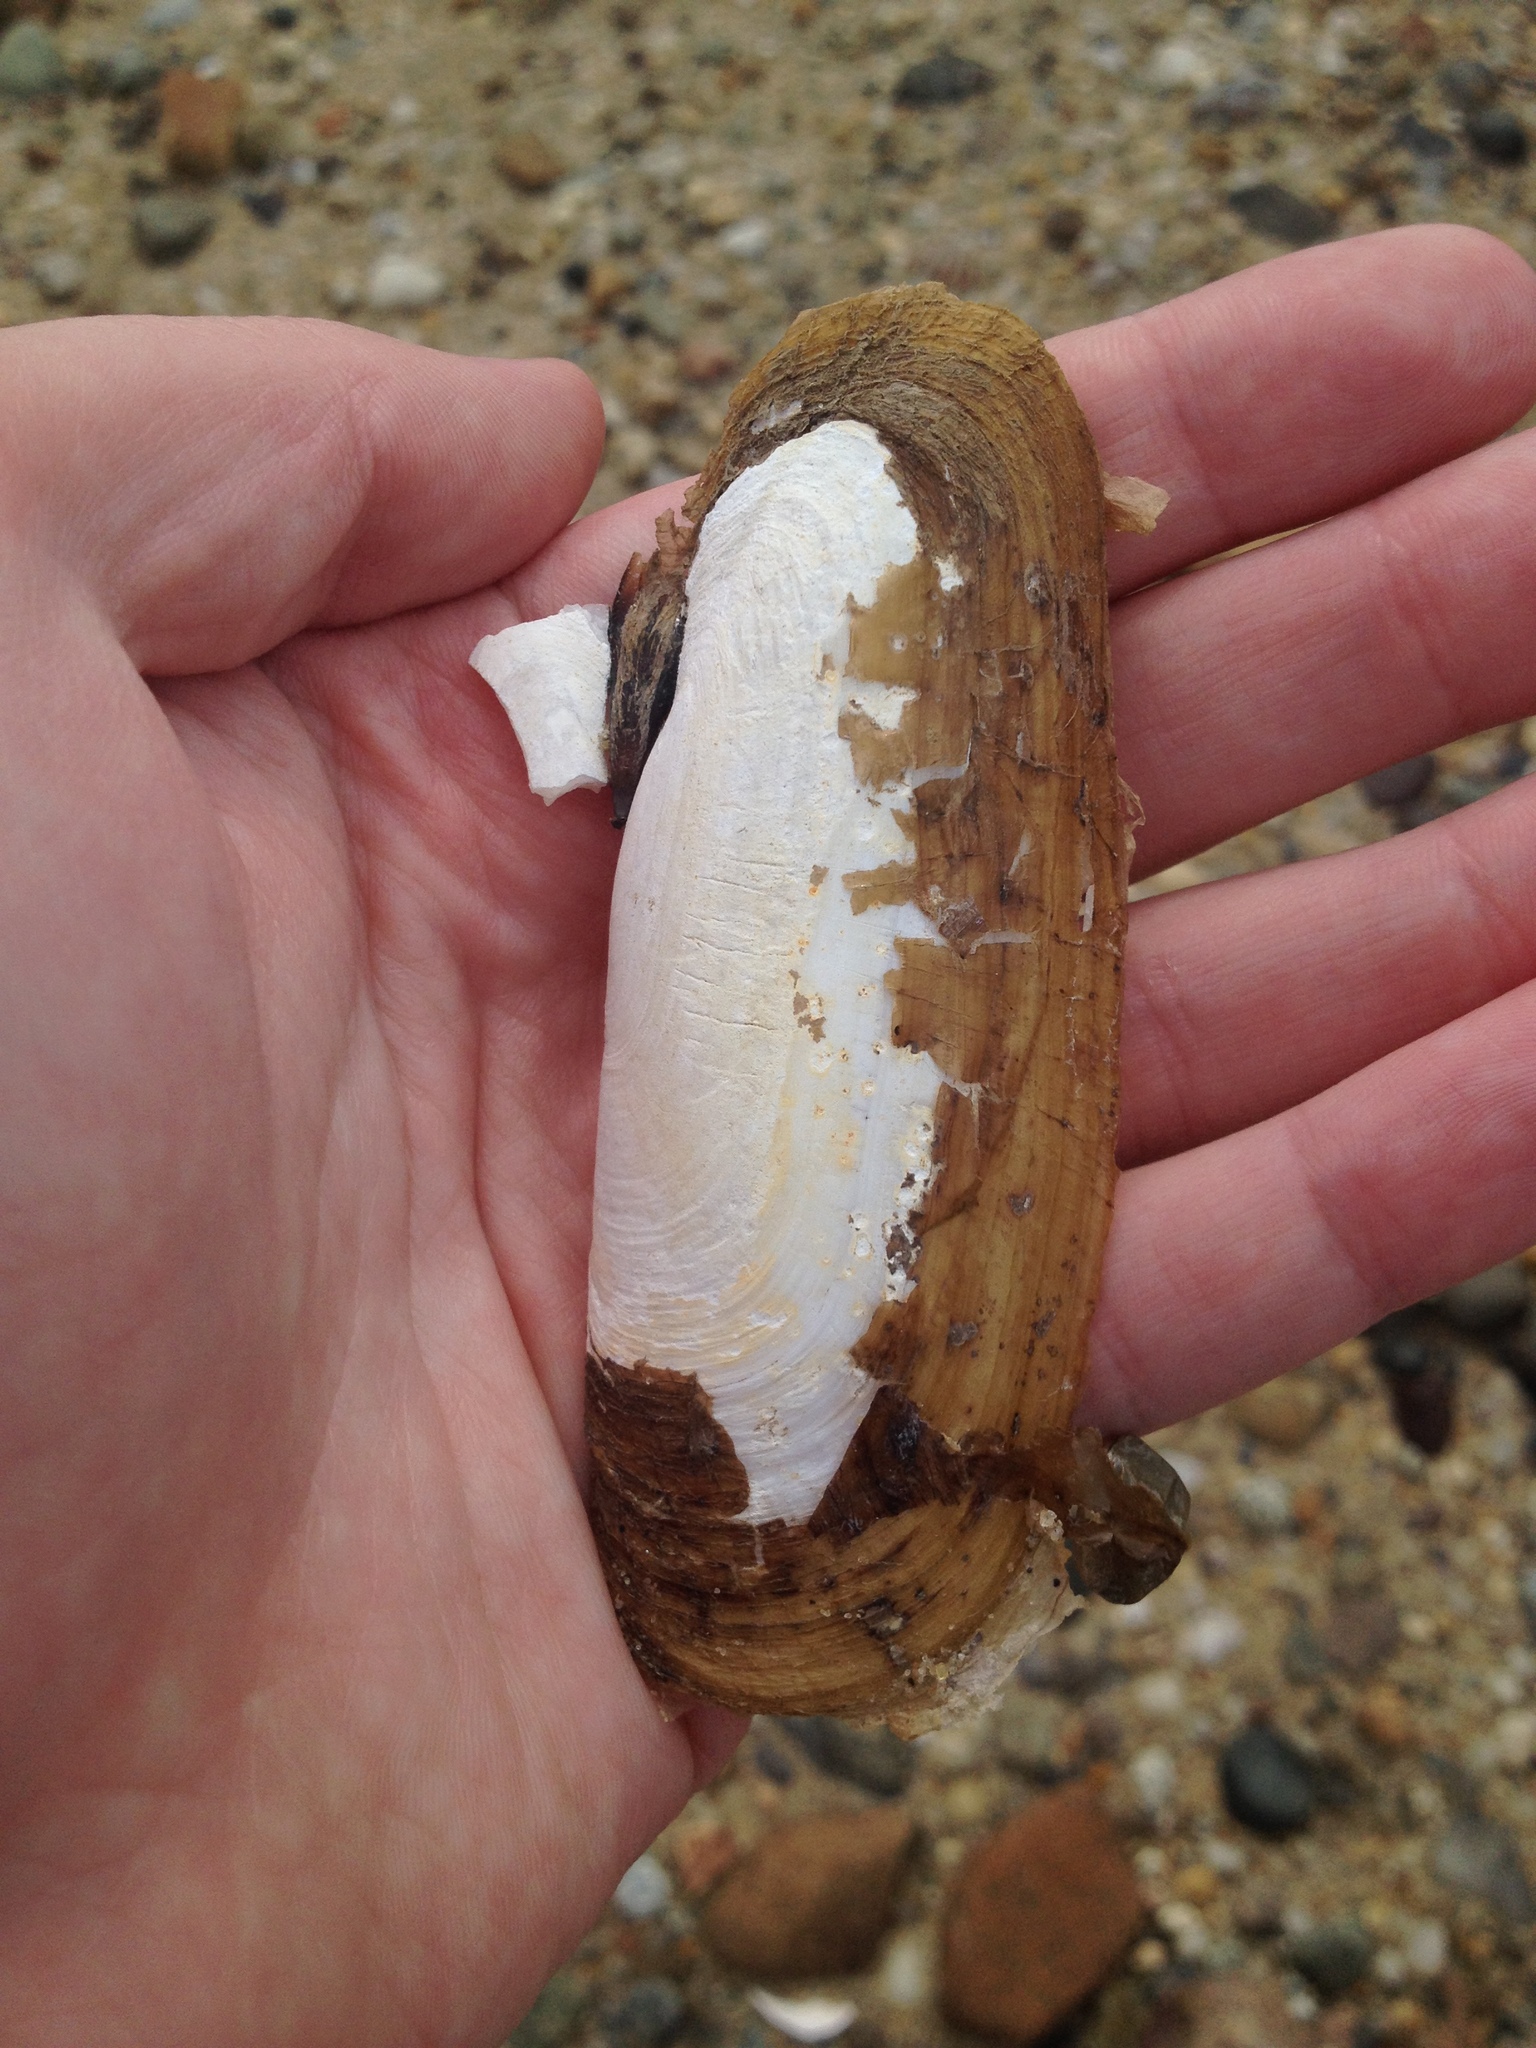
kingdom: Animalia
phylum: Mollusca
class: Bivalvia
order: Cardiida
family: Solecurtidae
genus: Tagelus
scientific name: Tagelus plebeius
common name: Stout tagelus
